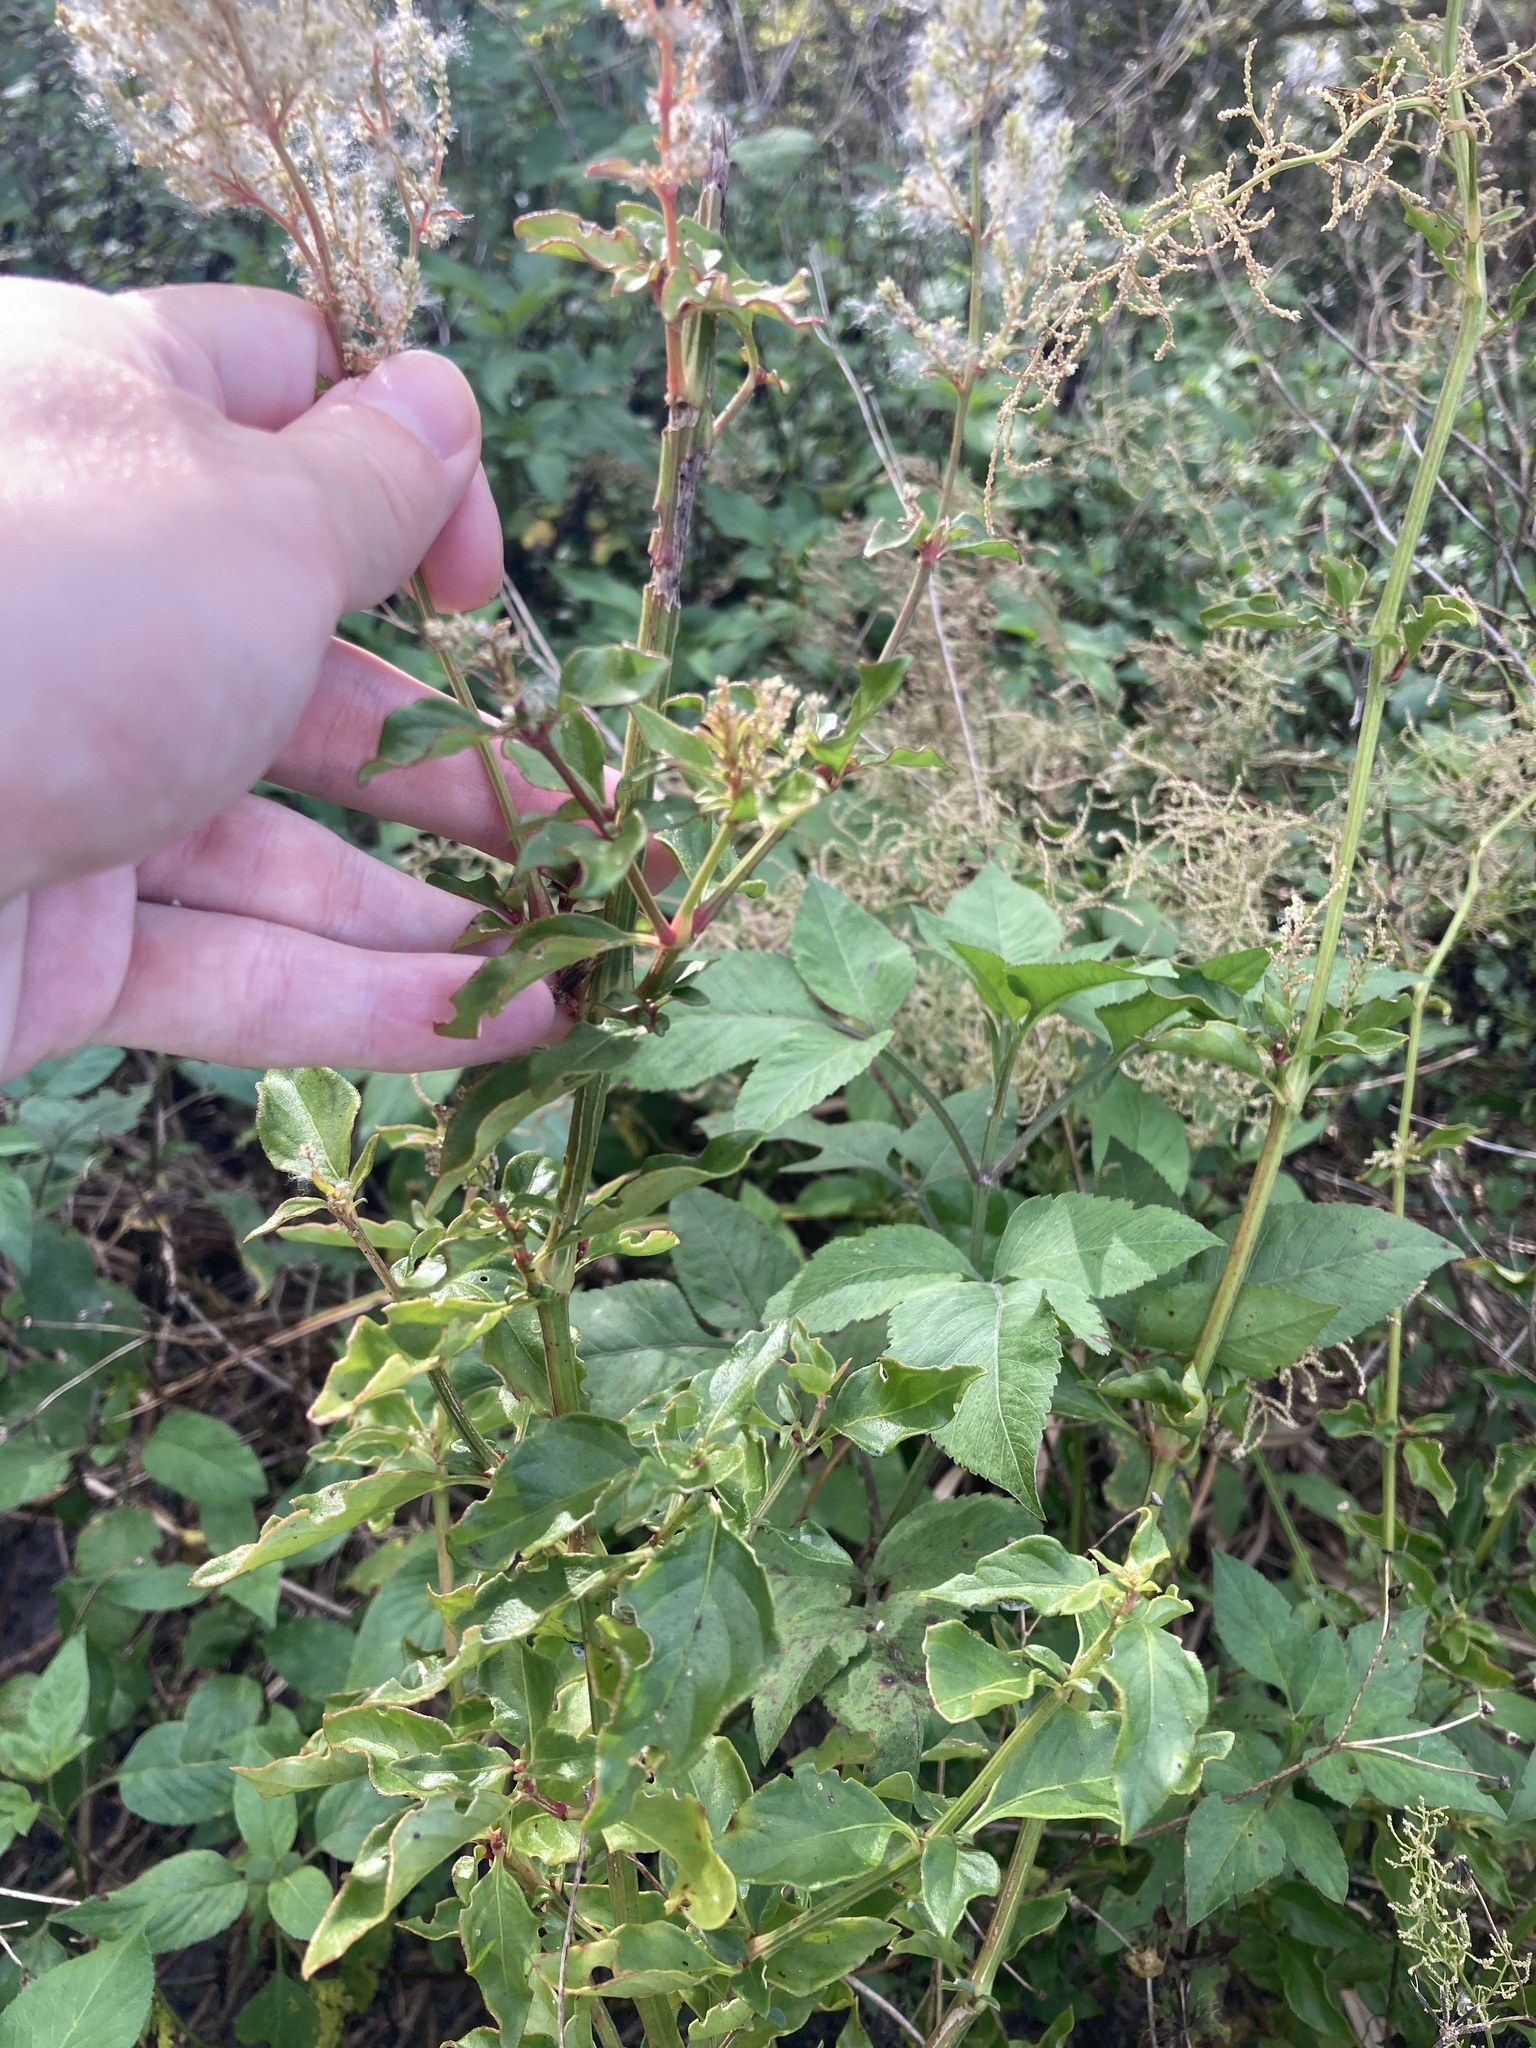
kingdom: Plantae
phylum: Tracheophyta
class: Magnoliopsida
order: Caryophyllales
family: Amaranthaceae
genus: Iresine
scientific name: Iresine diffusa
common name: Juba's-bush
